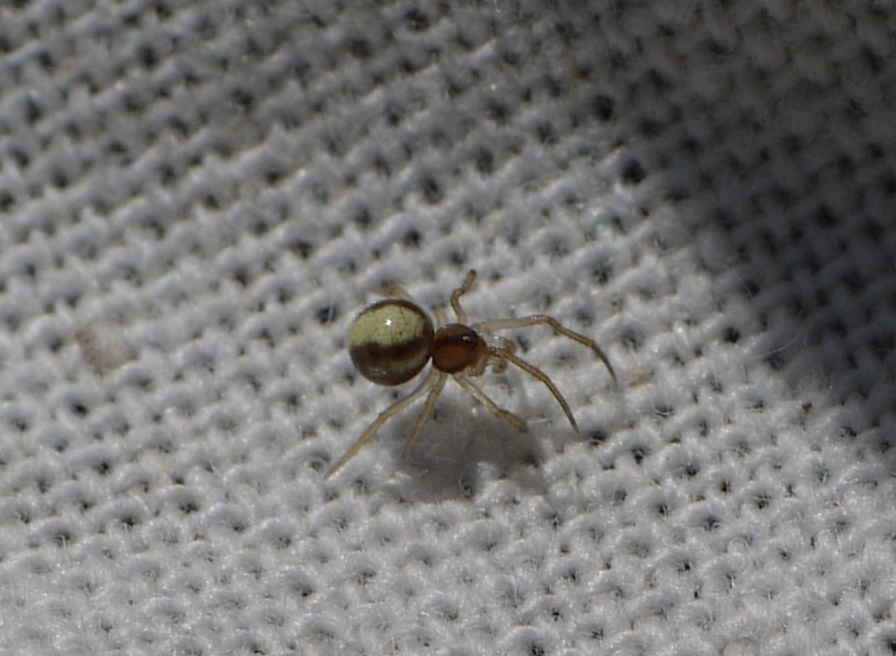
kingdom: Animalia
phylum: Arthropoda
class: Arachnida
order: Araneae
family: Theridiidae
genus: Neottiura
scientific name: Neottiura bimaculata
